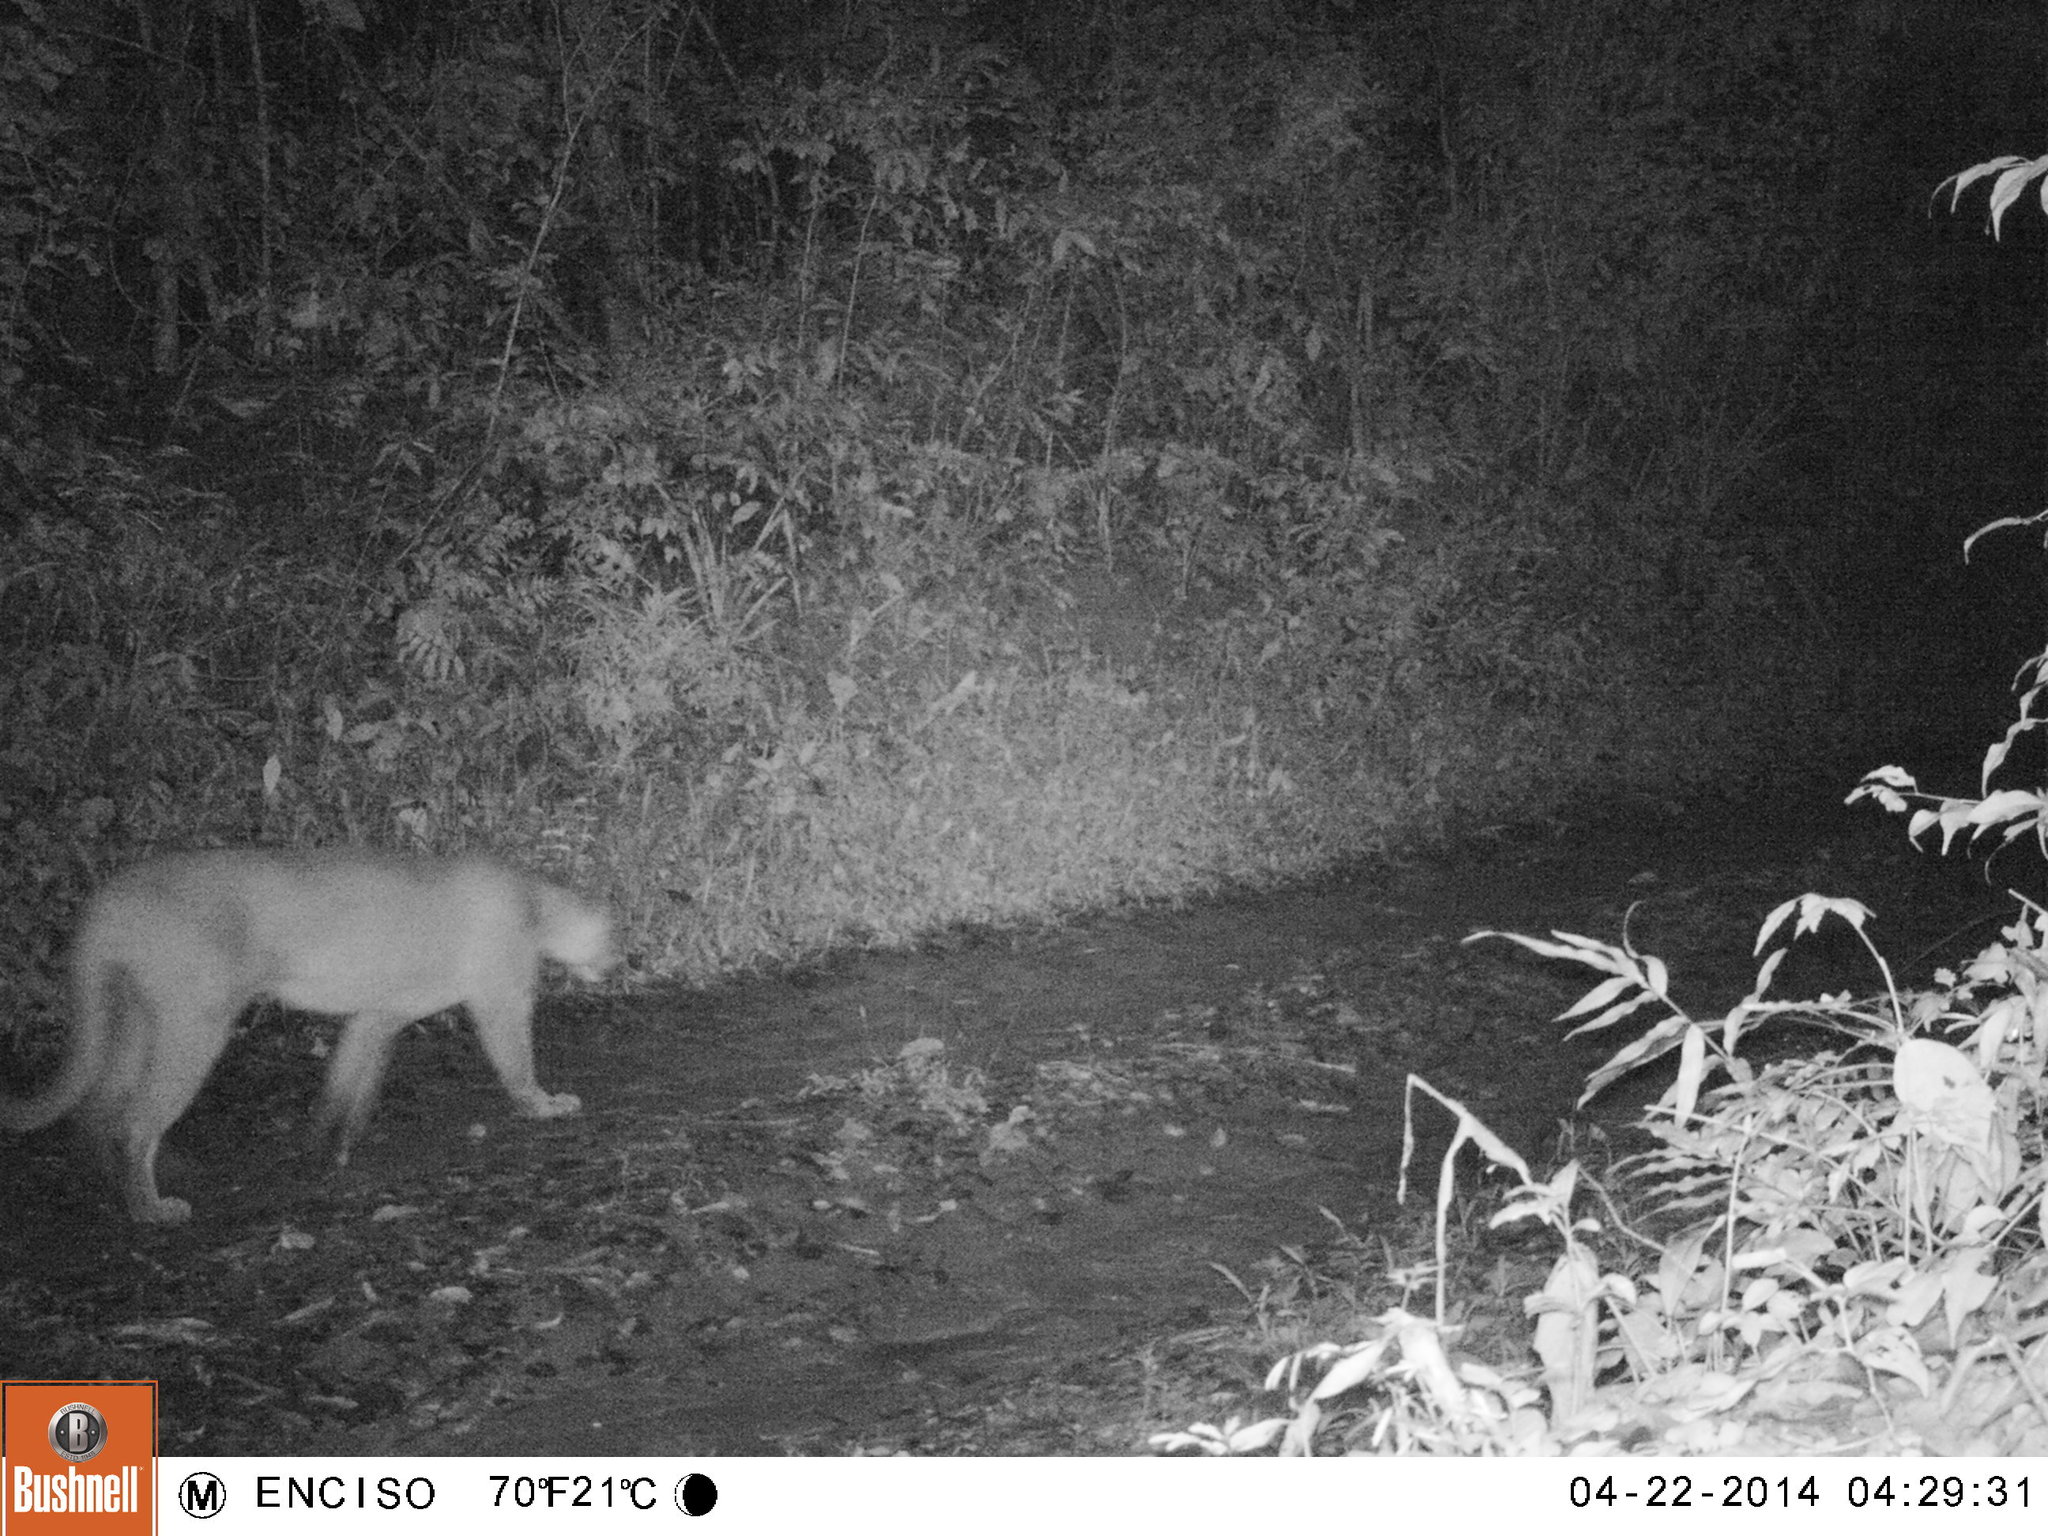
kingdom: Animalia
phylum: Chordata
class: Mammalia
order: Carnivora
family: Felidae
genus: Puma
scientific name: Puma concolor
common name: Puma
